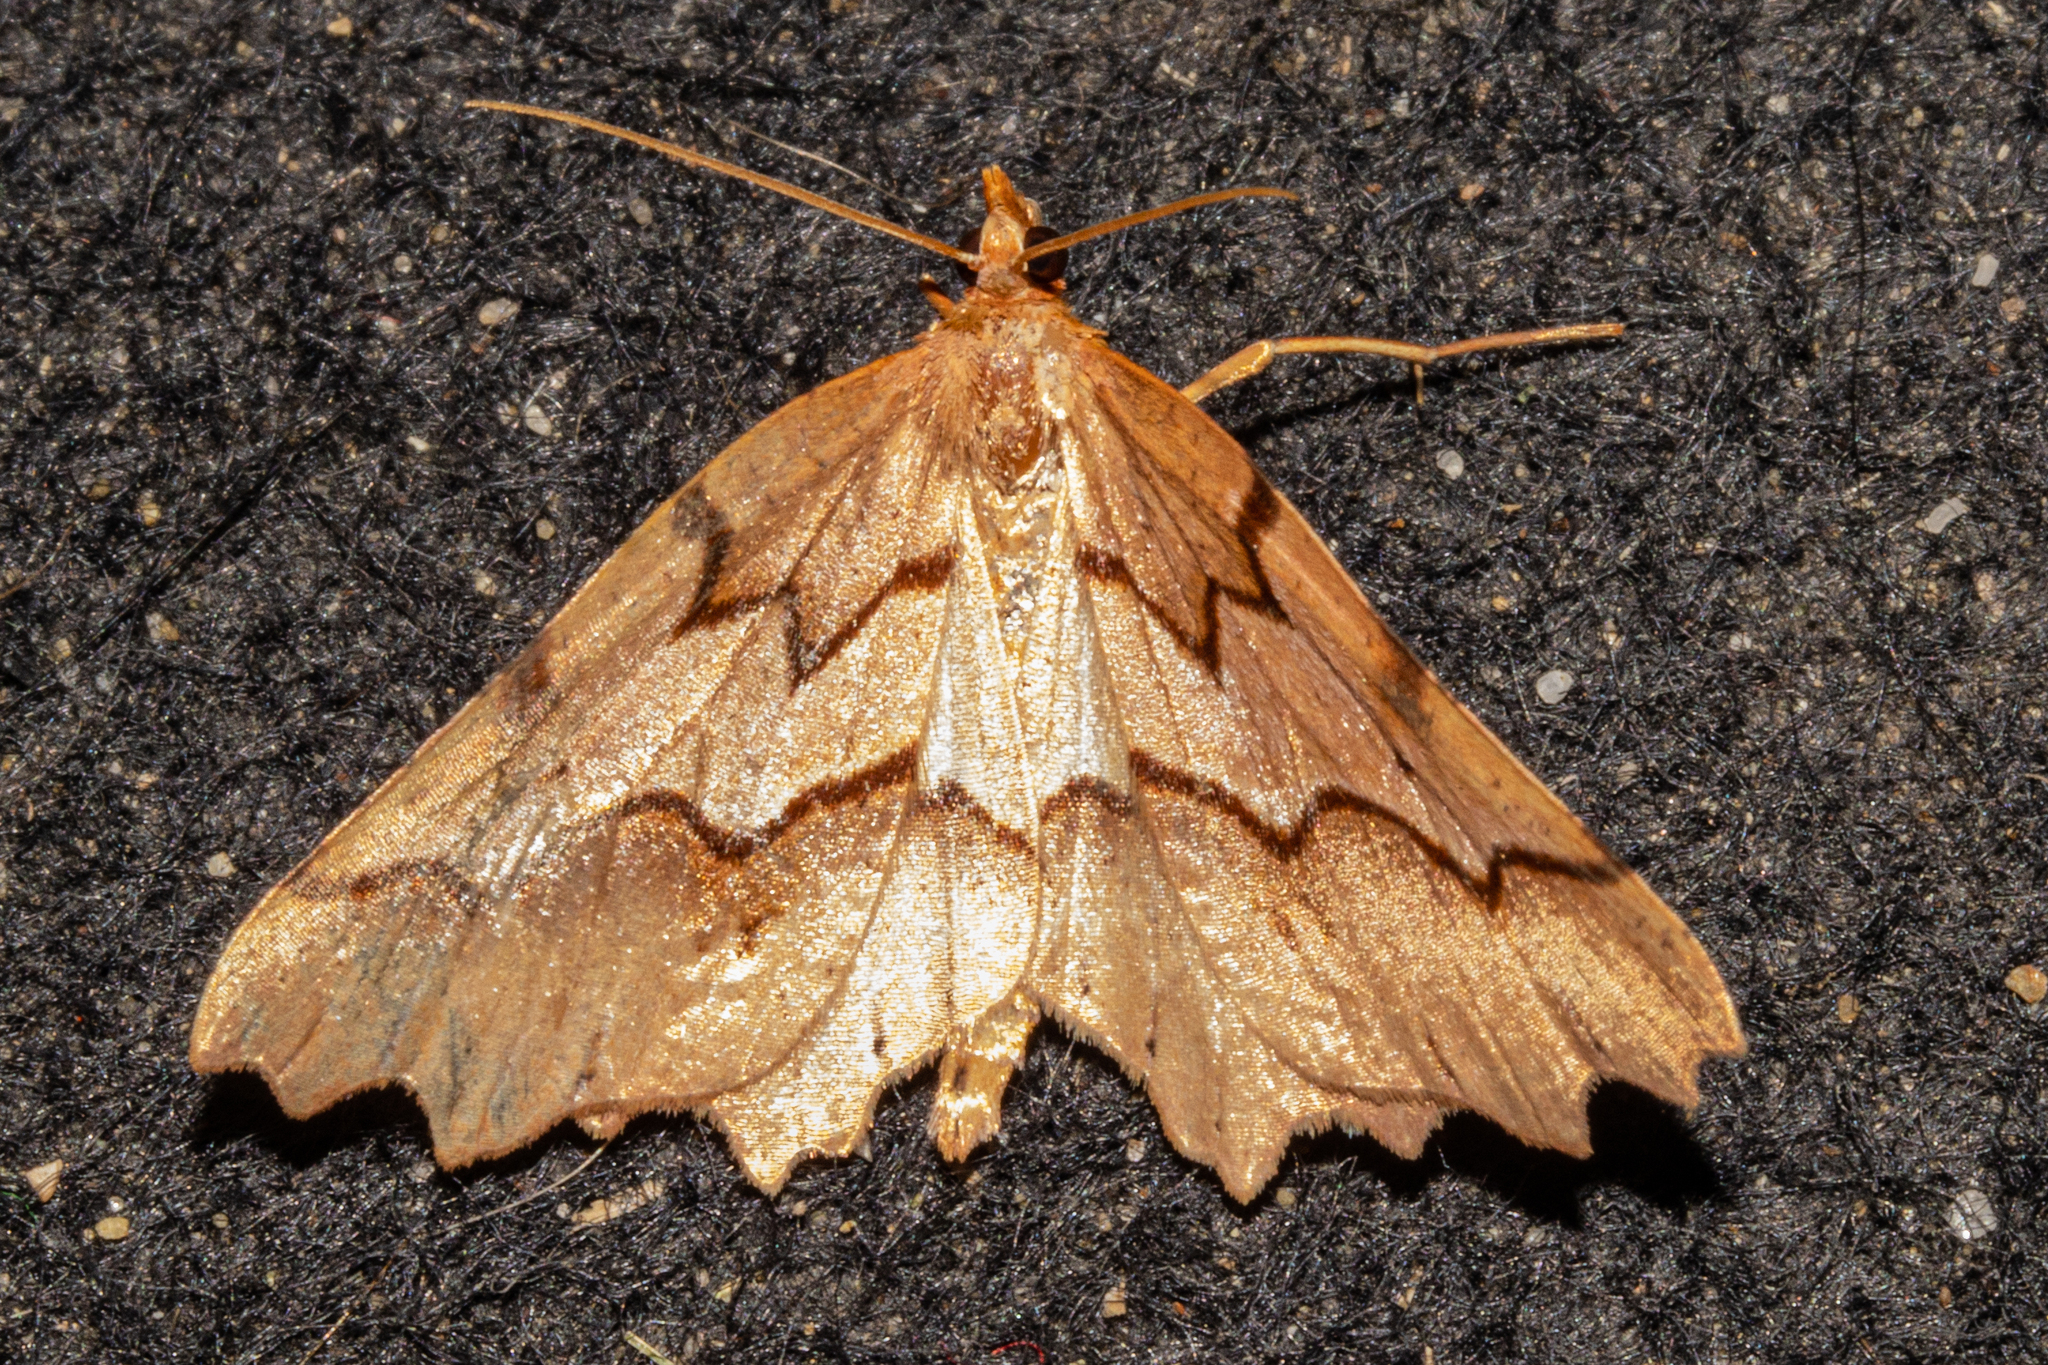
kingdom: Animalia
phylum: Arthropoda
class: Insecta
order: Lepidoptera
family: Geometridae
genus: Ischalis
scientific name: Ischalis fortinata
